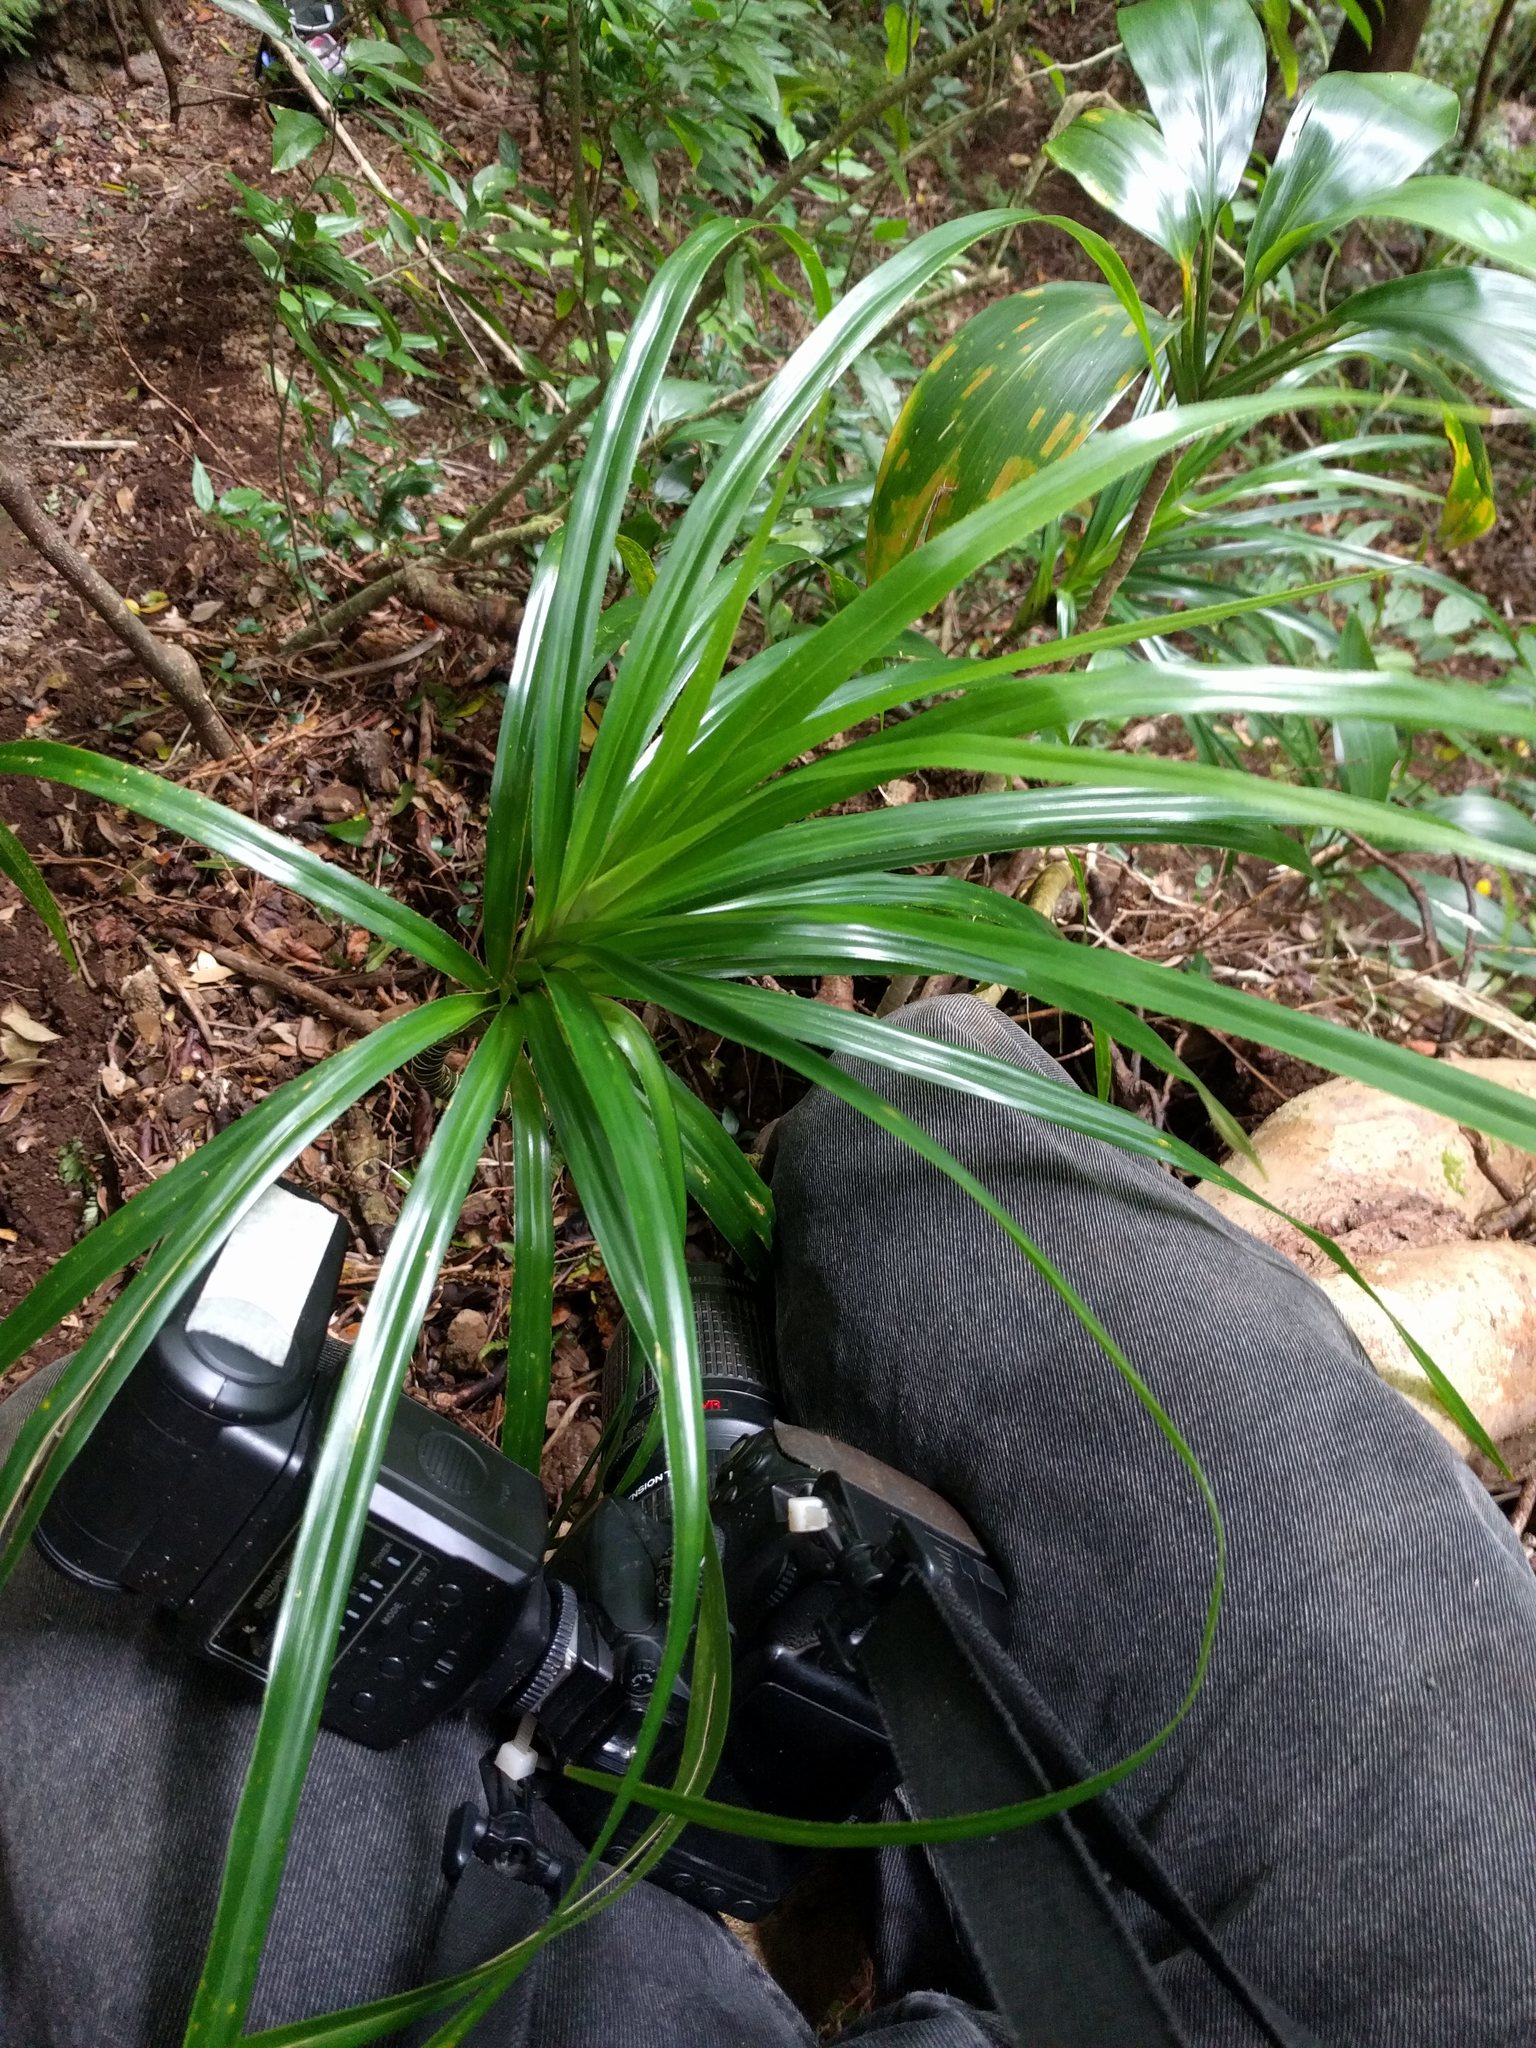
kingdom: Plantae
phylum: Tracheophyta
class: Liliopsida
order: Pandanales
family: Pandanaceae
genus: Freycinetia
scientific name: Freycinetia arborea
